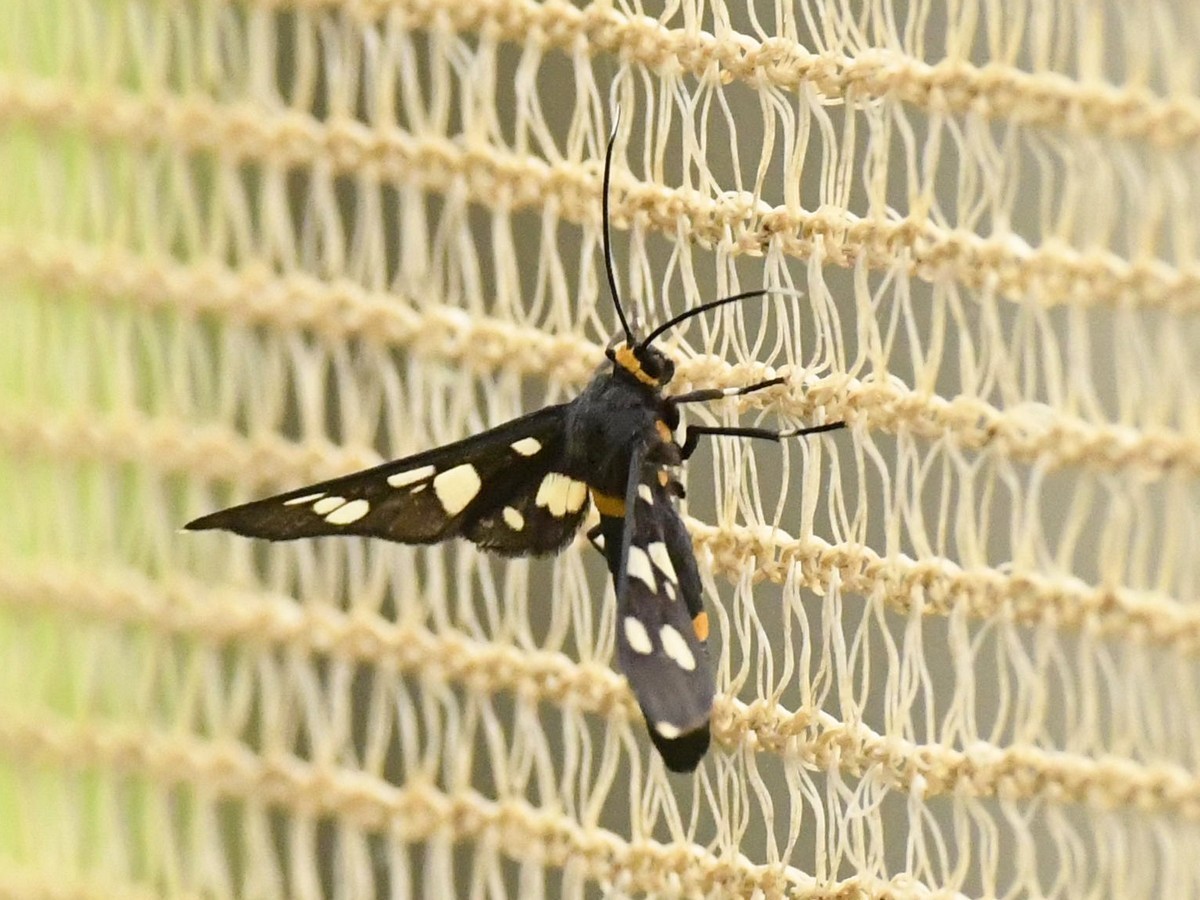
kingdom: Animalia
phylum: Arthropoda
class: Insecta
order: Lepidoptera
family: Erebidae
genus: Syntomoides
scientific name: Syntomoides imaon
